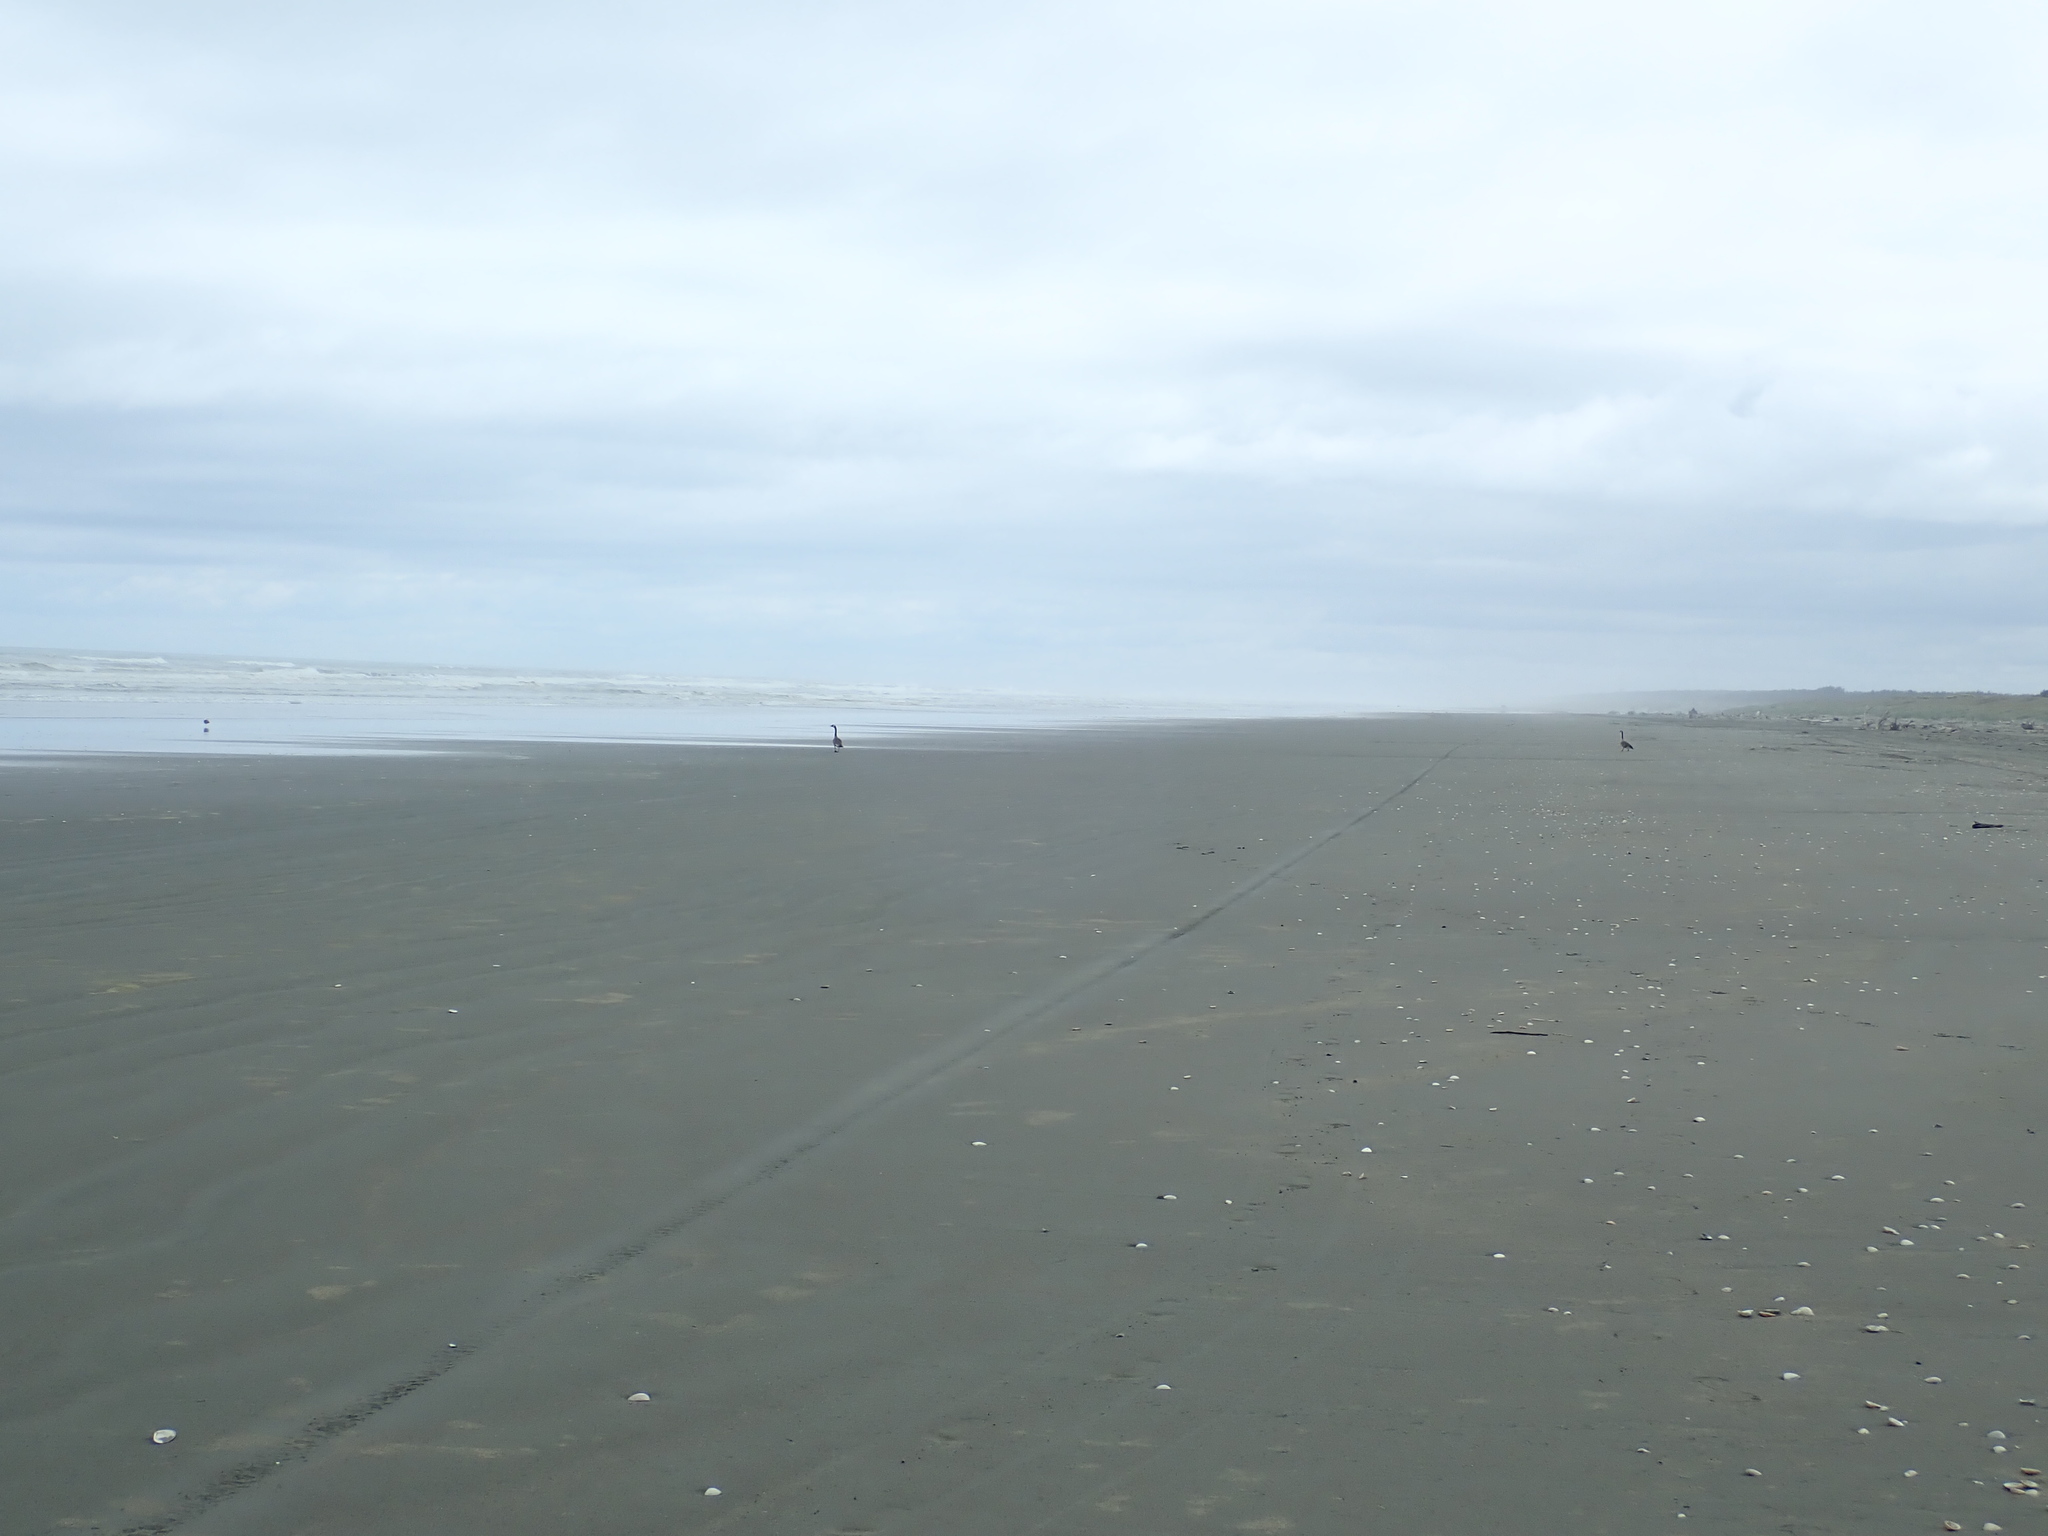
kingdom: Animalia
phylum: Chordata
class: Aves
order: Anseriformes
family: Anatidae
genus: Branta
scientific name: Branta canadensis
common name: Canada goose
